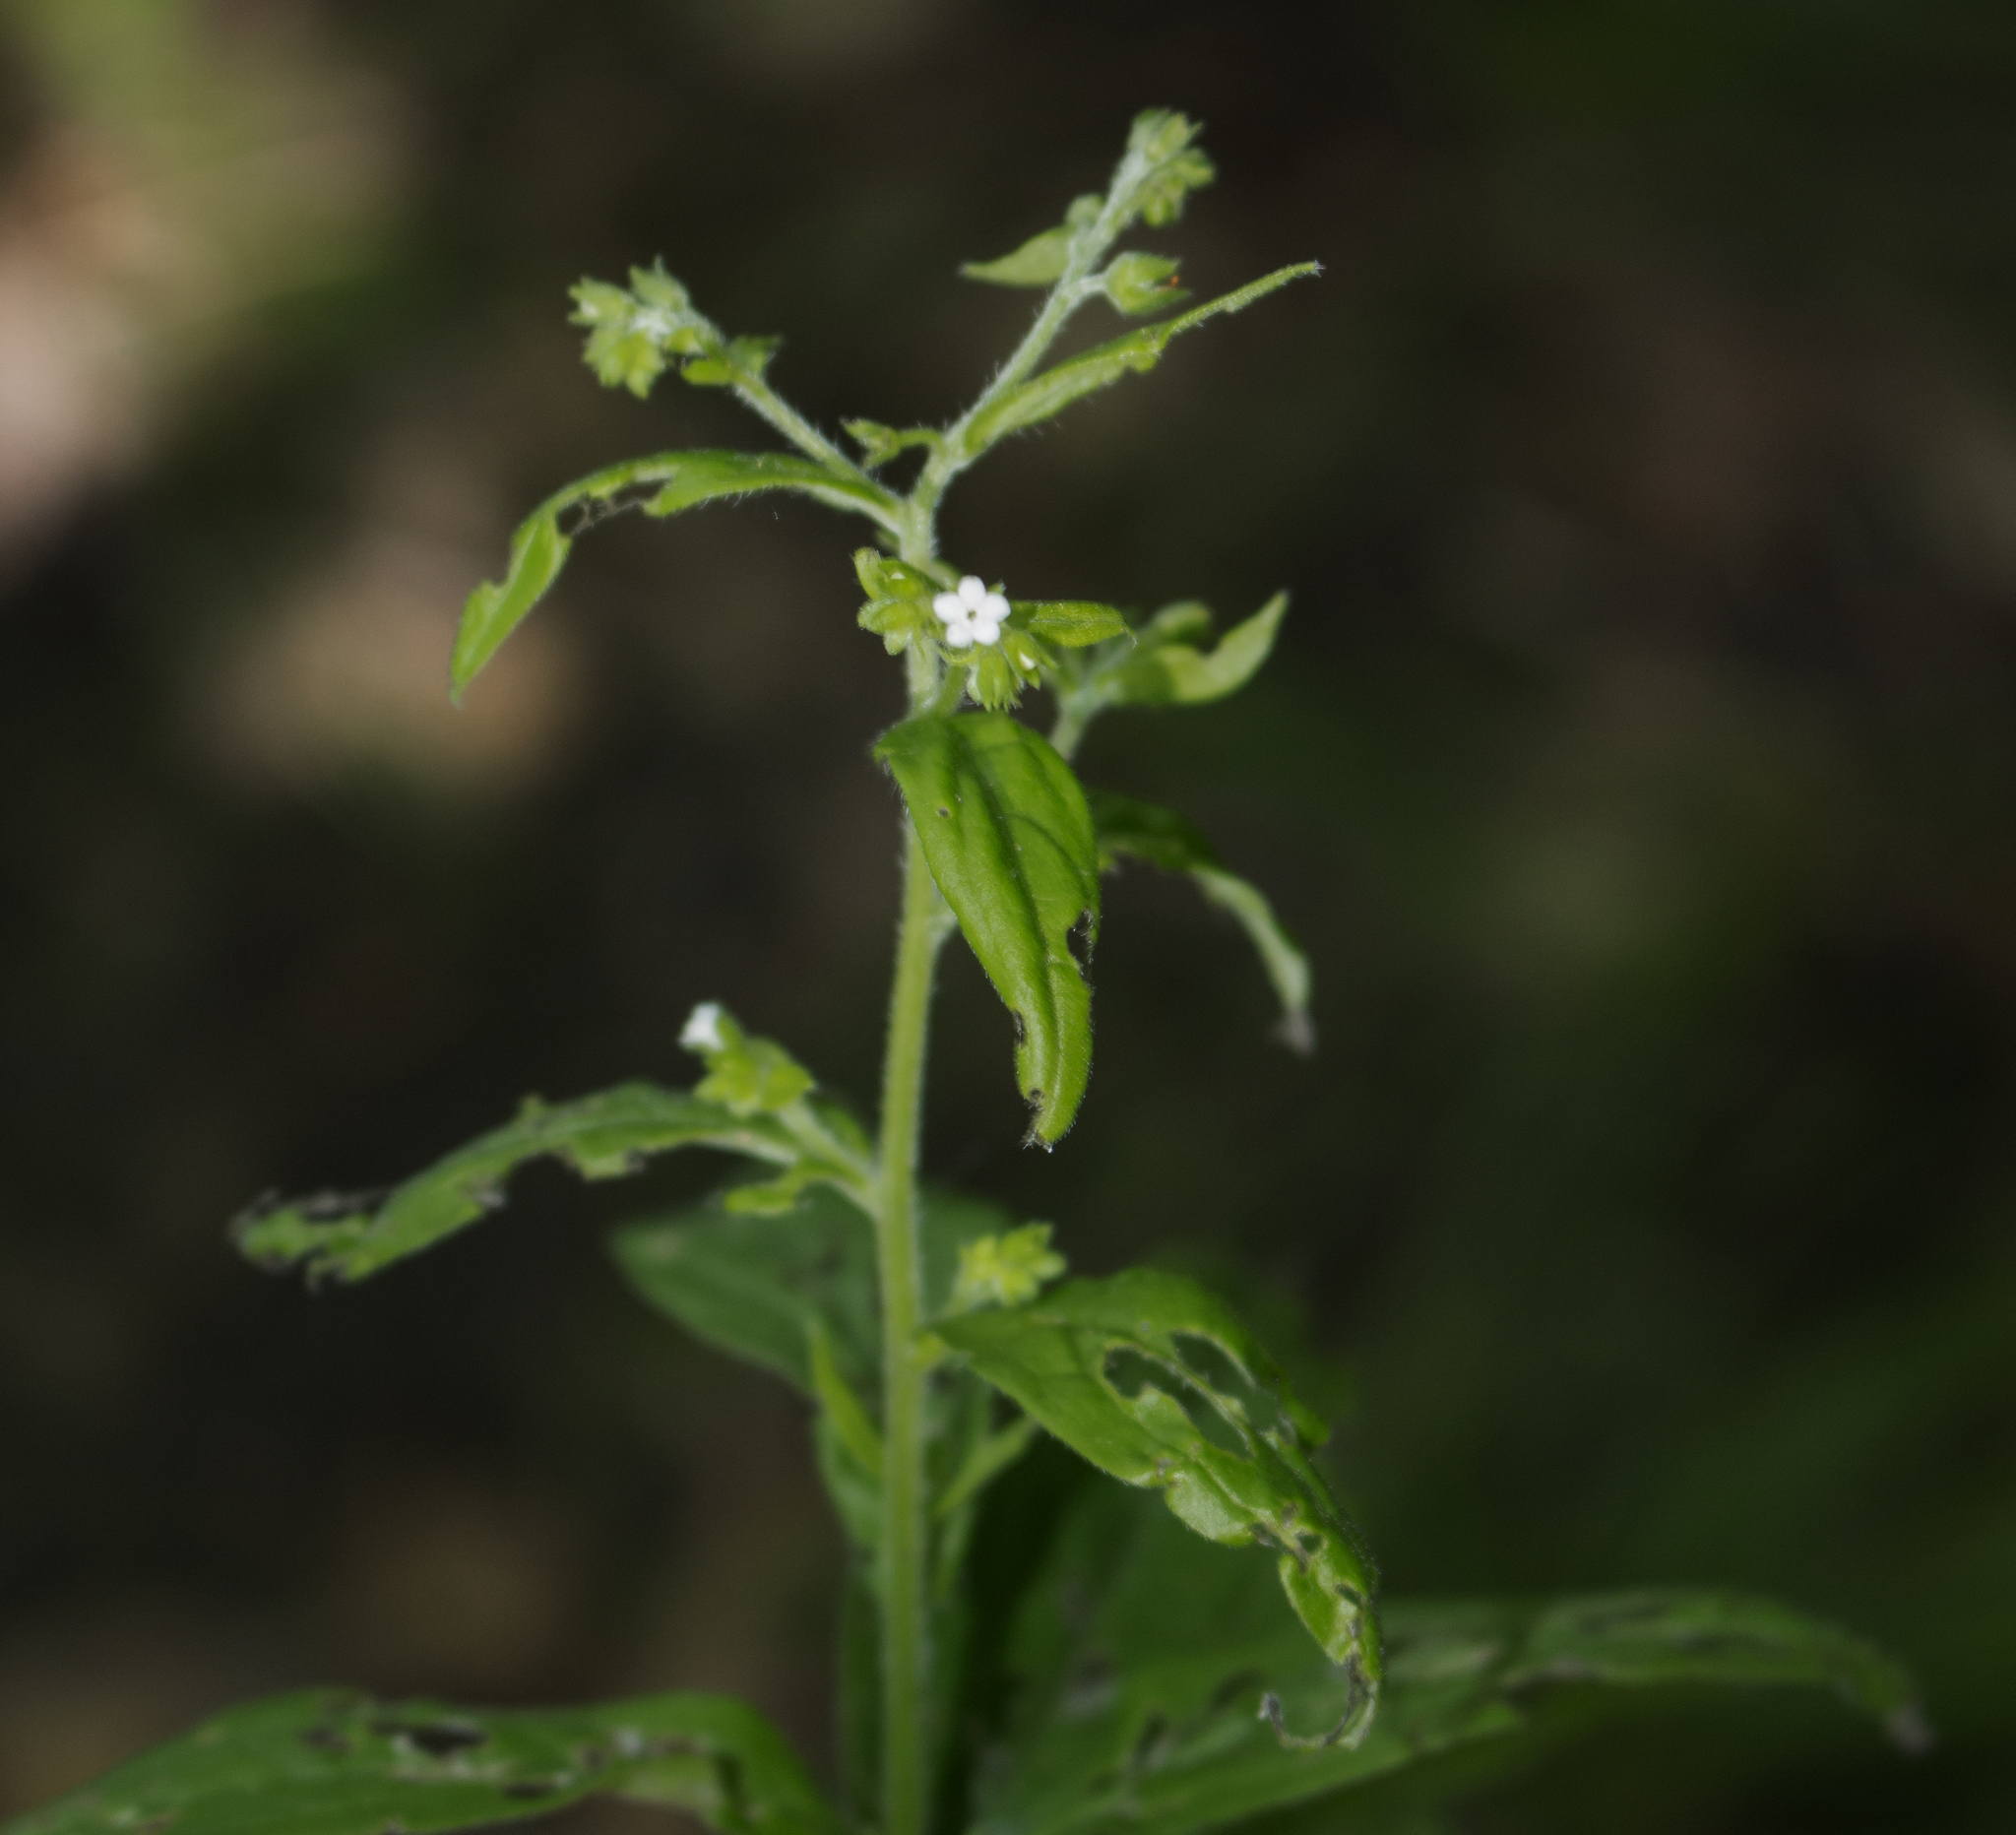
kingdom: Plantae
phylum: Tracheophyta
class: Magnoliopsida
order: Boraginales
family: Boraginaceae
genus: Hackelia
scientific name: Hackelia virginiana
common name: Beggar's-lice
